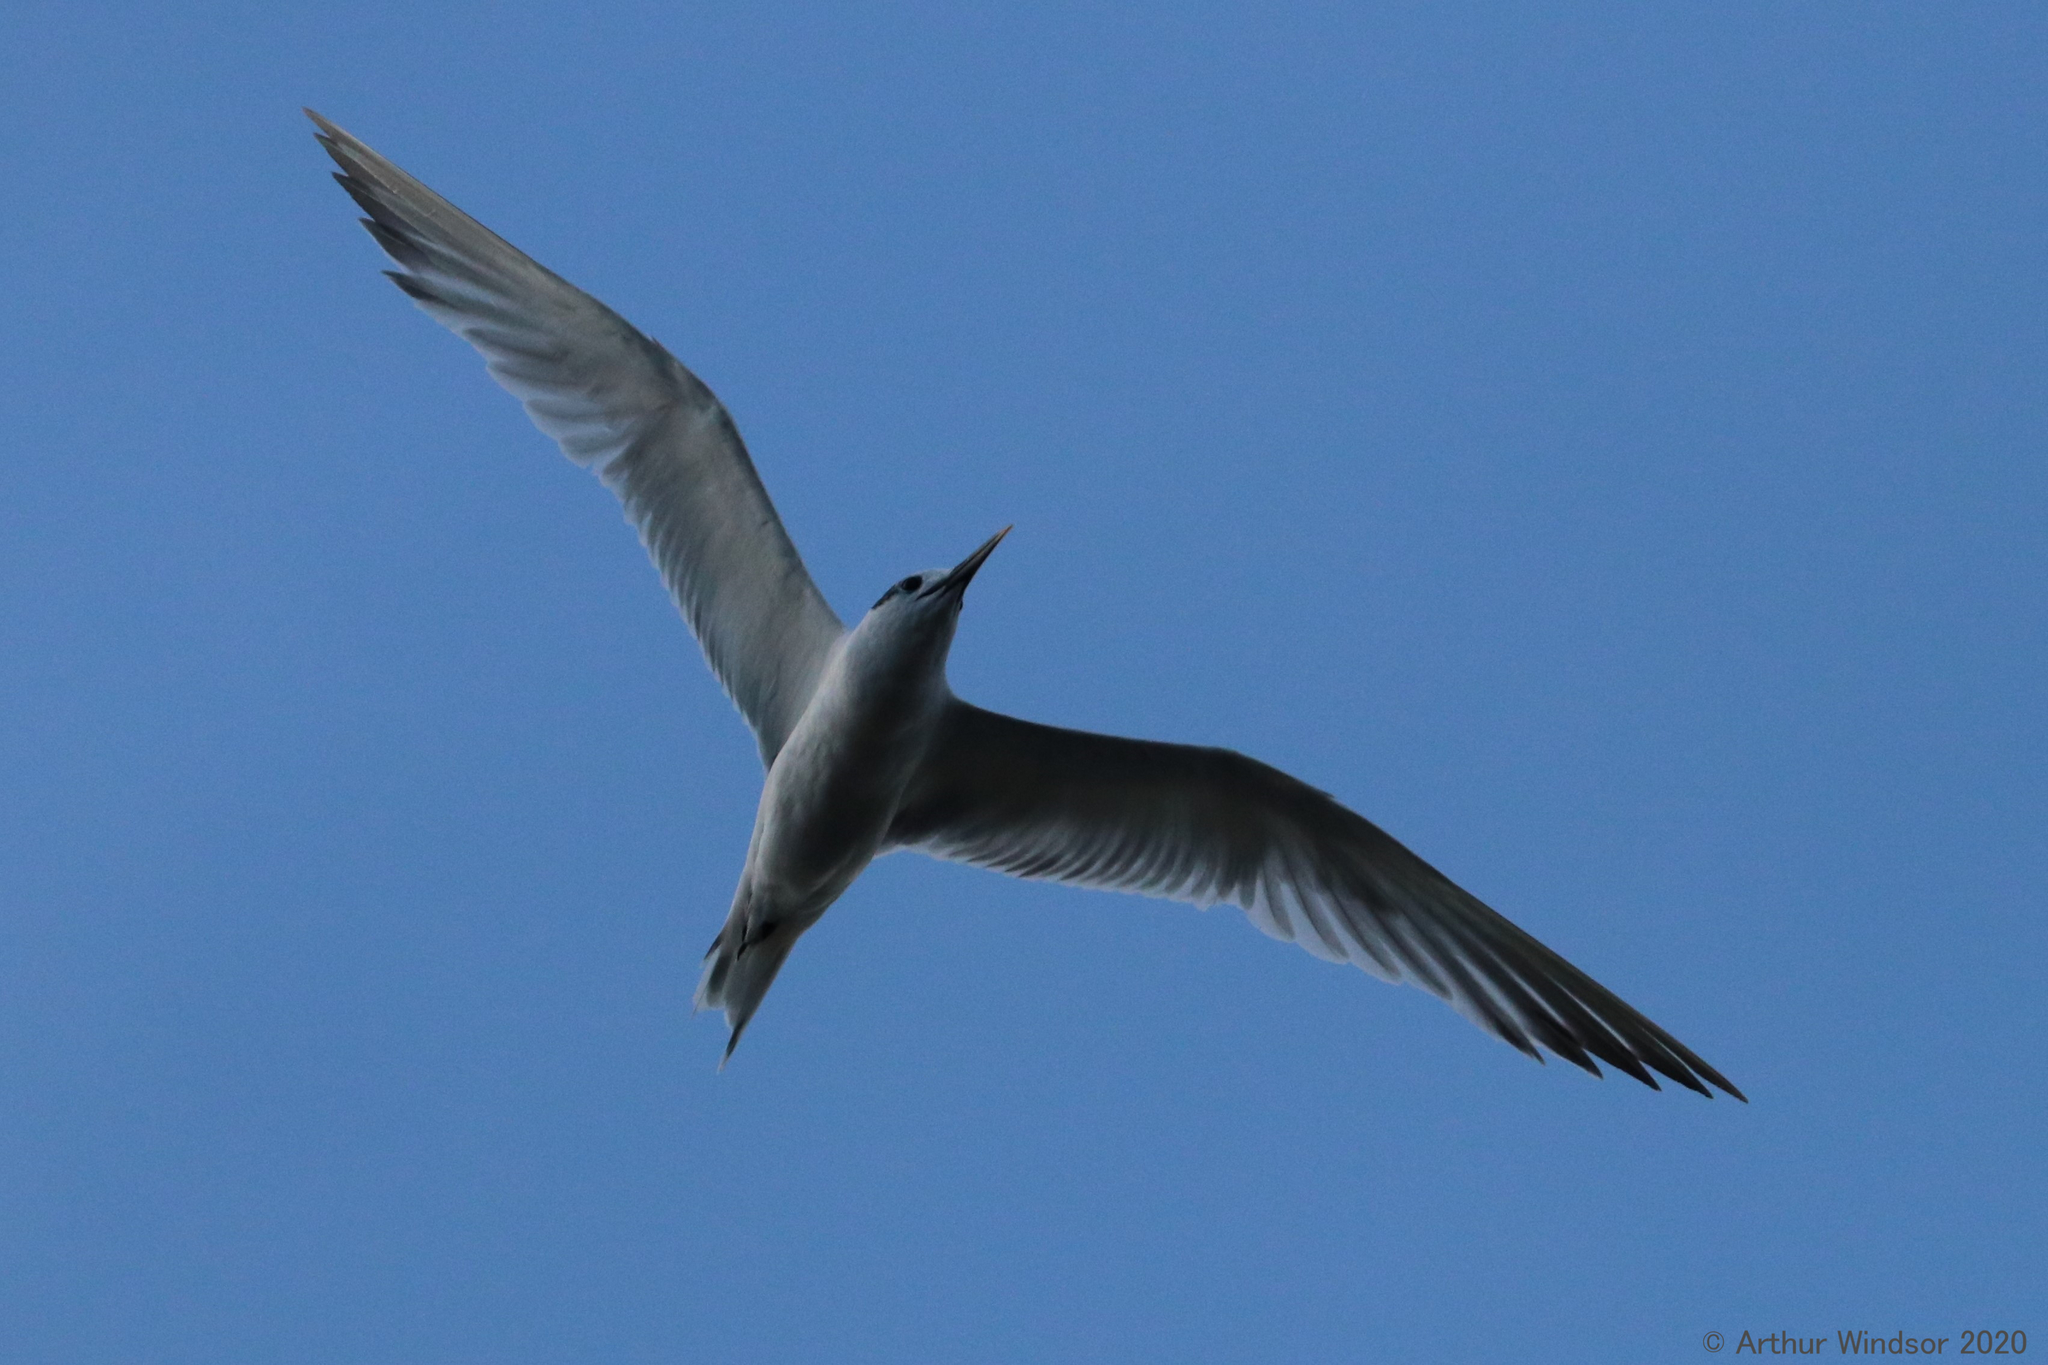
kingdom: Animalia
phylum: Chordata
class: Aves
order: Charadriiformes
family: Laridae
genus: Thalasseus
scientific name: Thalasseus sandvicensis
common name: Sandwich tern
